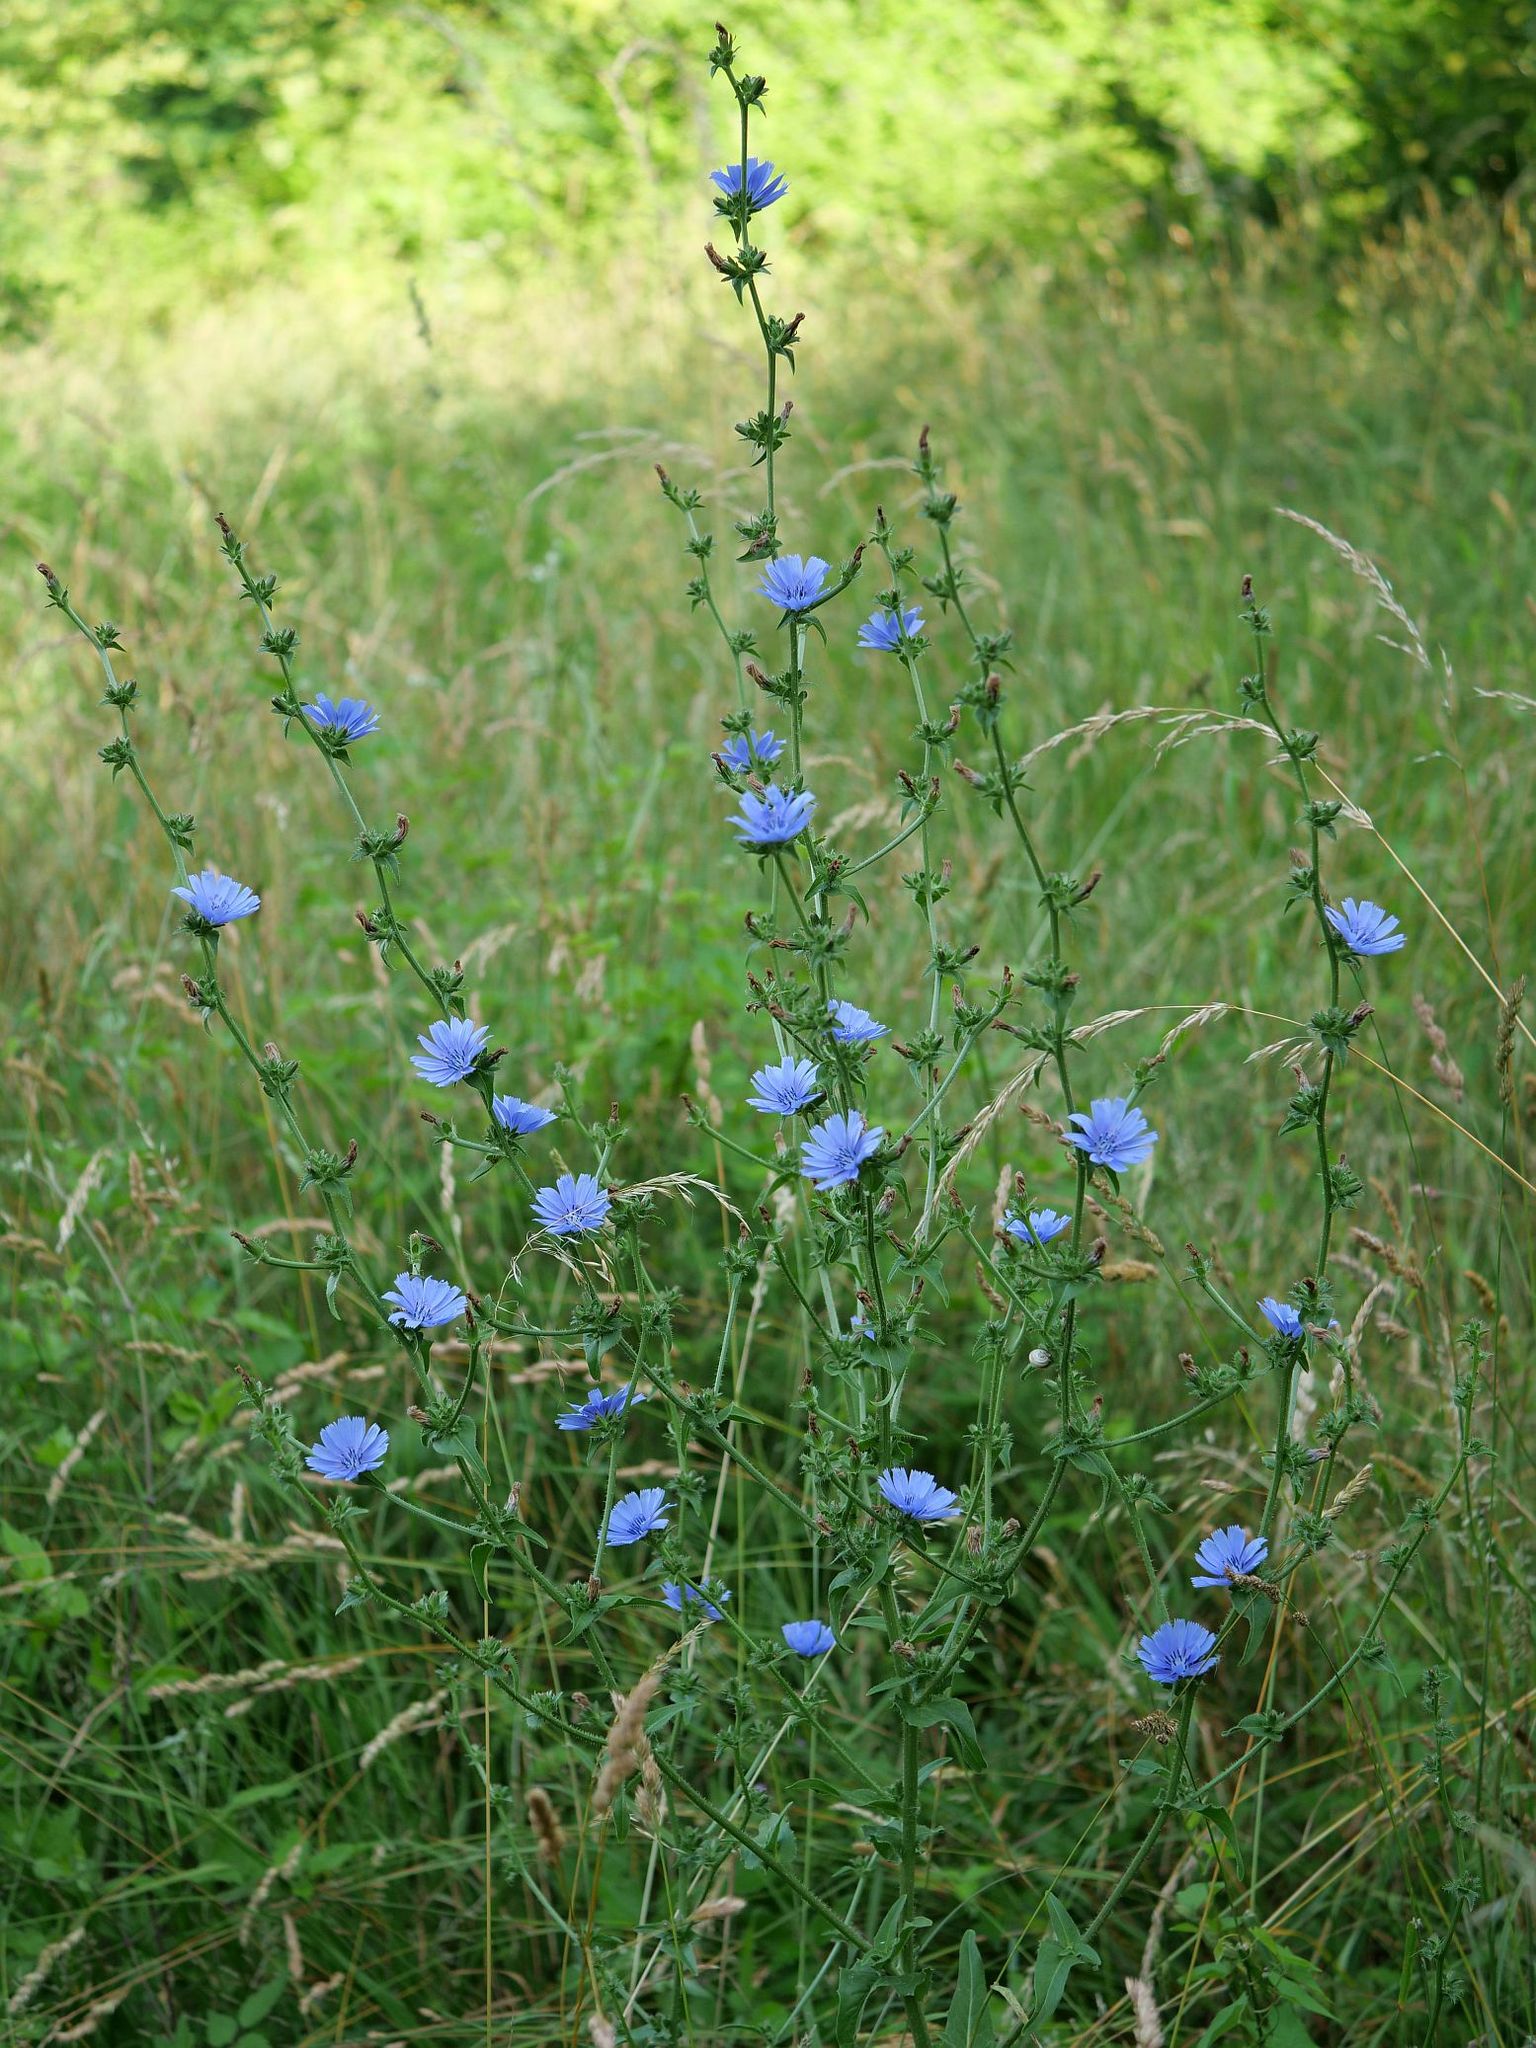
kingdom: Plantae
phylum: Tracheophyta
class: Magnoliopsida
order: Asterales
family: Asteraceae
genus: Cichorium
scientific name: Cichorium intybus
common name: Chicory
